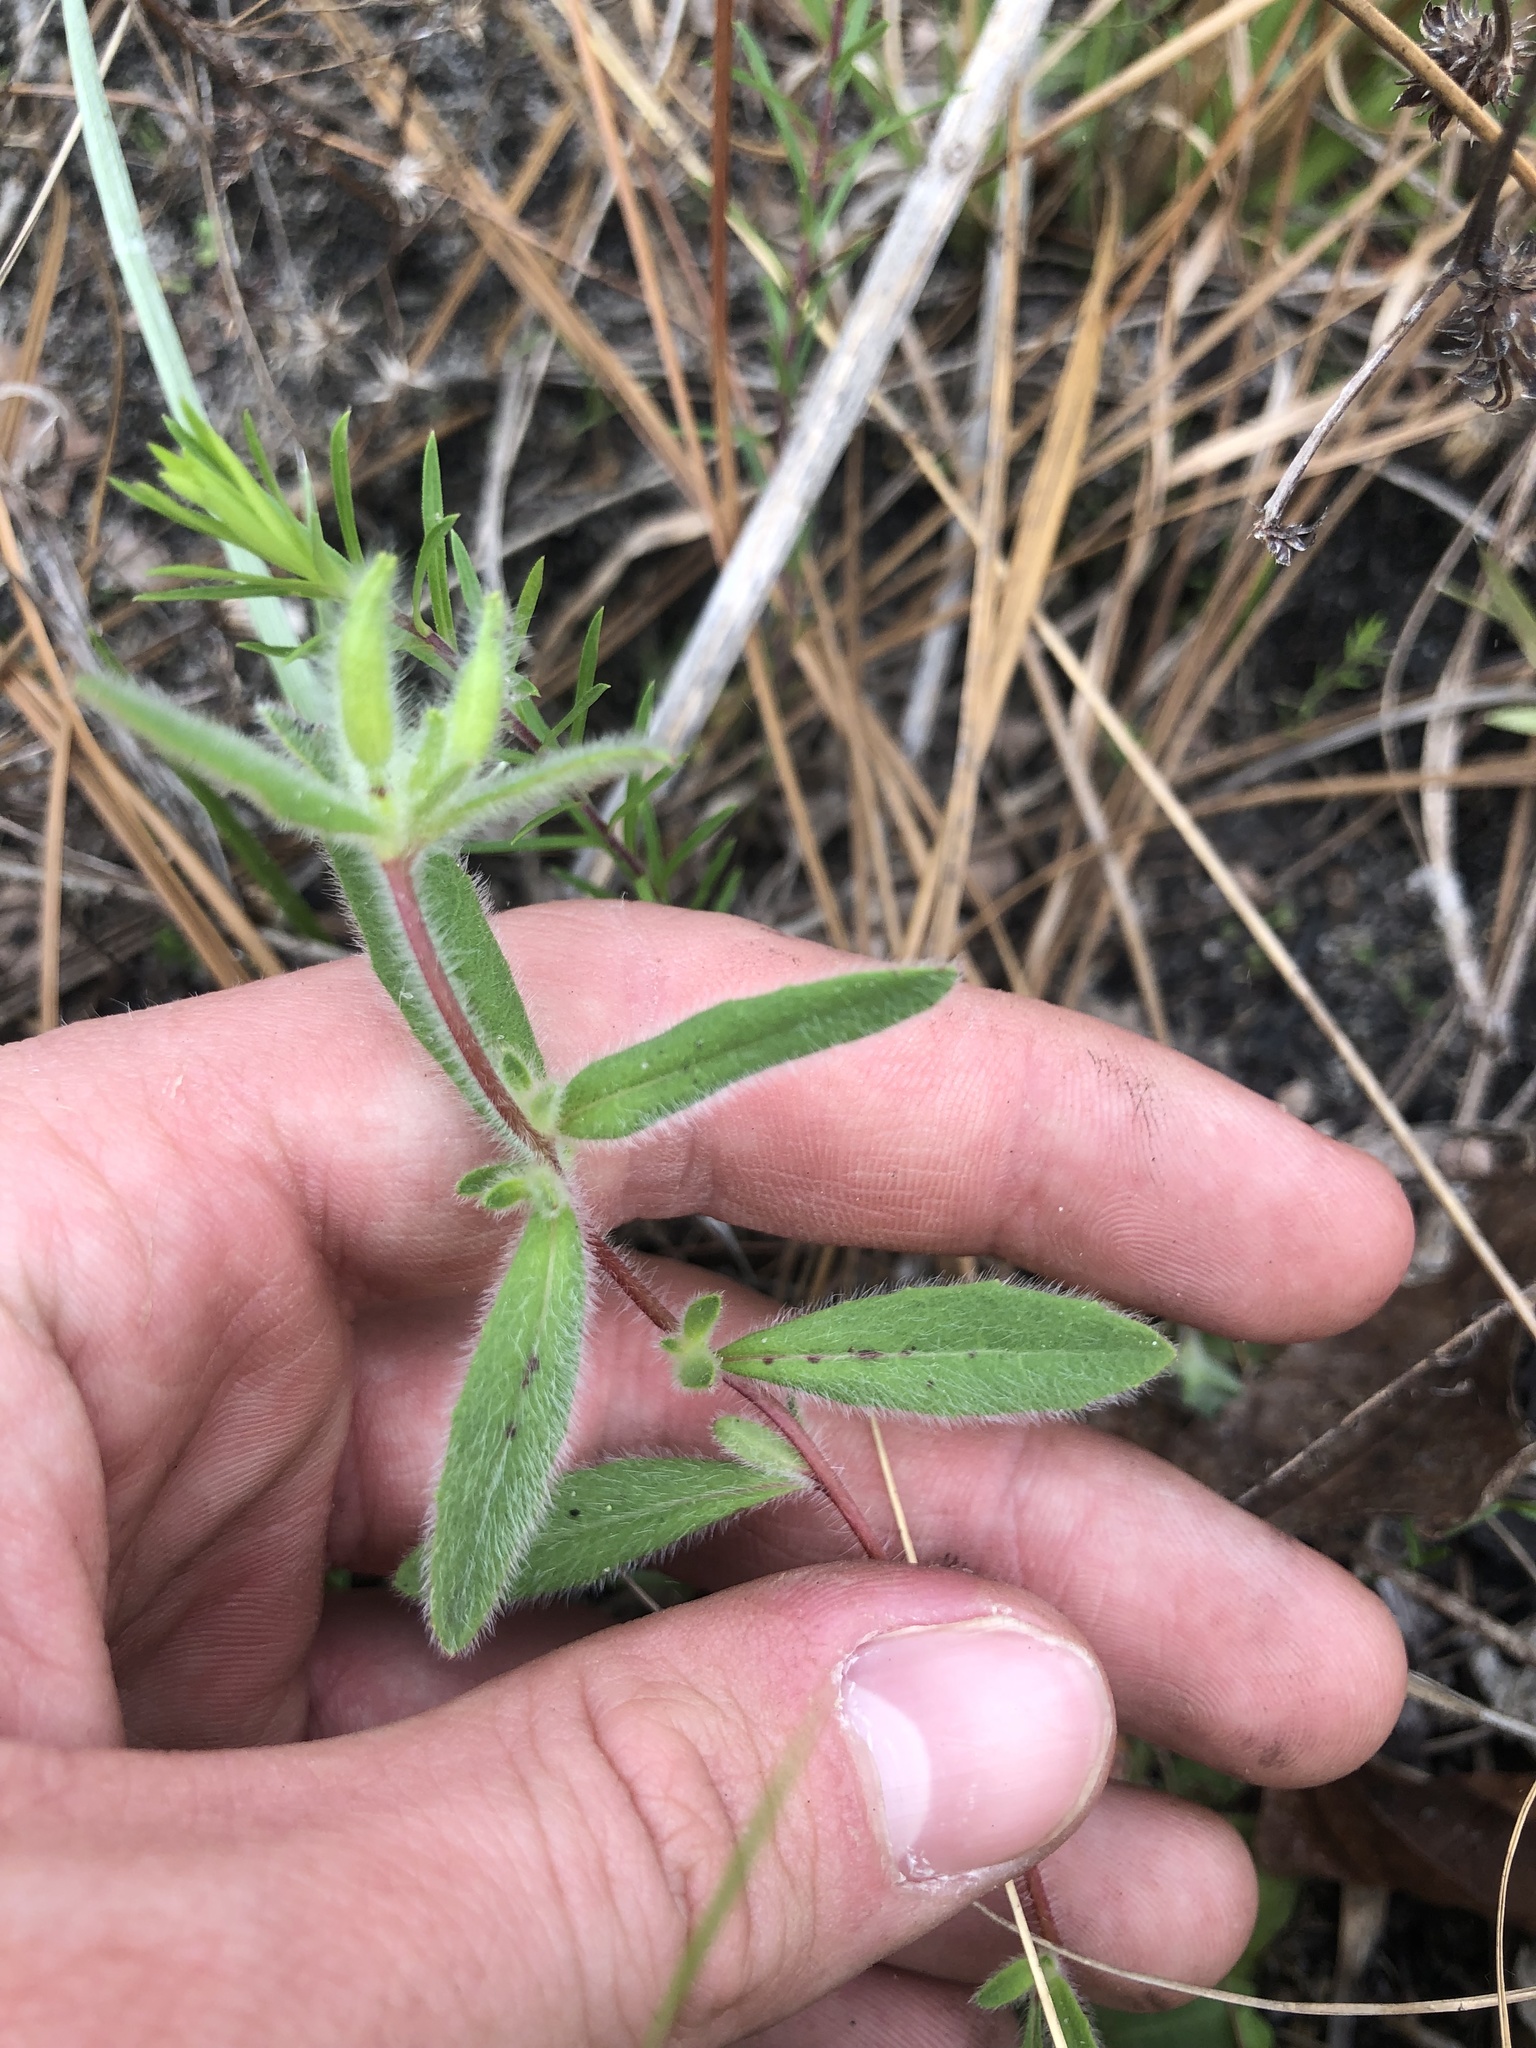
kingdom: Plantae
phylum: Tracheophyta
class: Magnoliopsida
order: Myrtales
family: Onagraceae
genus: Oenothera
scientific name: Oenothera fruticosa
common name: Southern sundrops
